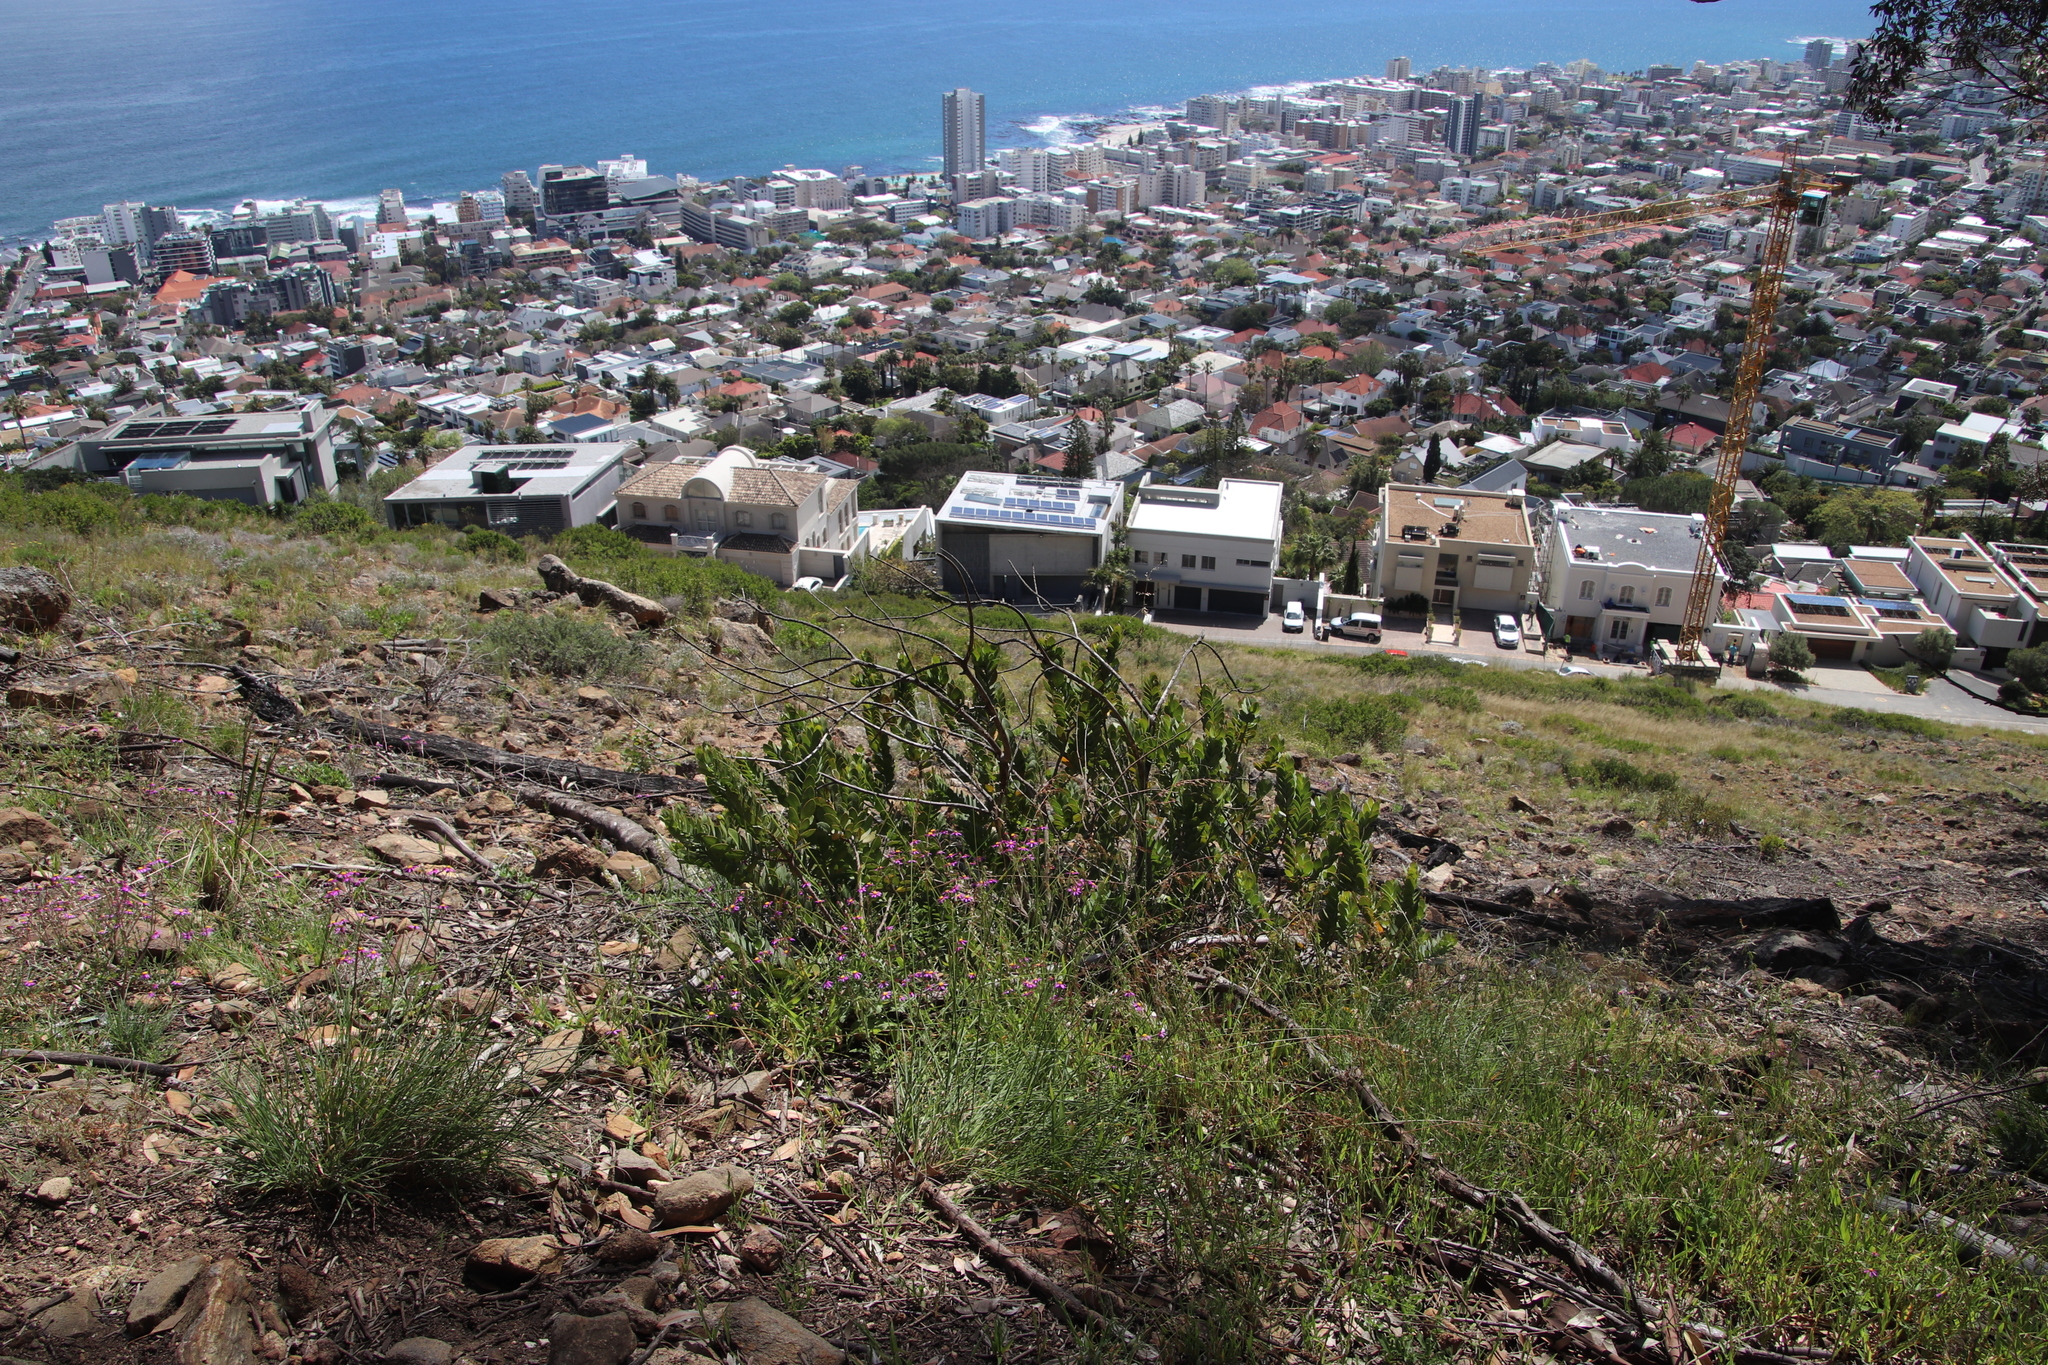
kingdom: Plantae
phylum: Tracheophyta
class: Magnoliopsida
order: Santalales
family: Santalaceae
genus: Osyris
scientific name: Osyris compressa
